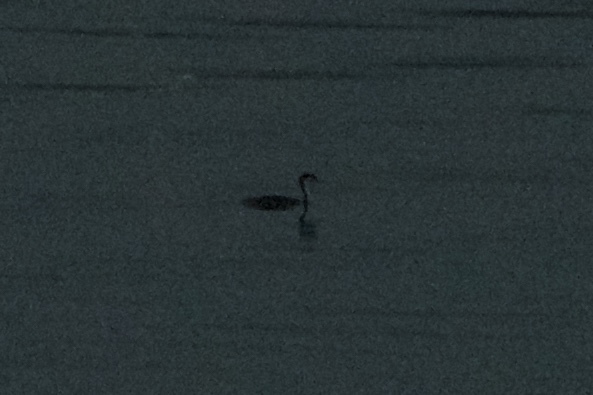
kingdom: Animalia
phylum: Chordata
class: Aves
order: Podicipediformes
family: Podicipedidae
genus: Aechmophorus
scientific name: Aechmophorus occidentalis
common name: Western grebe
